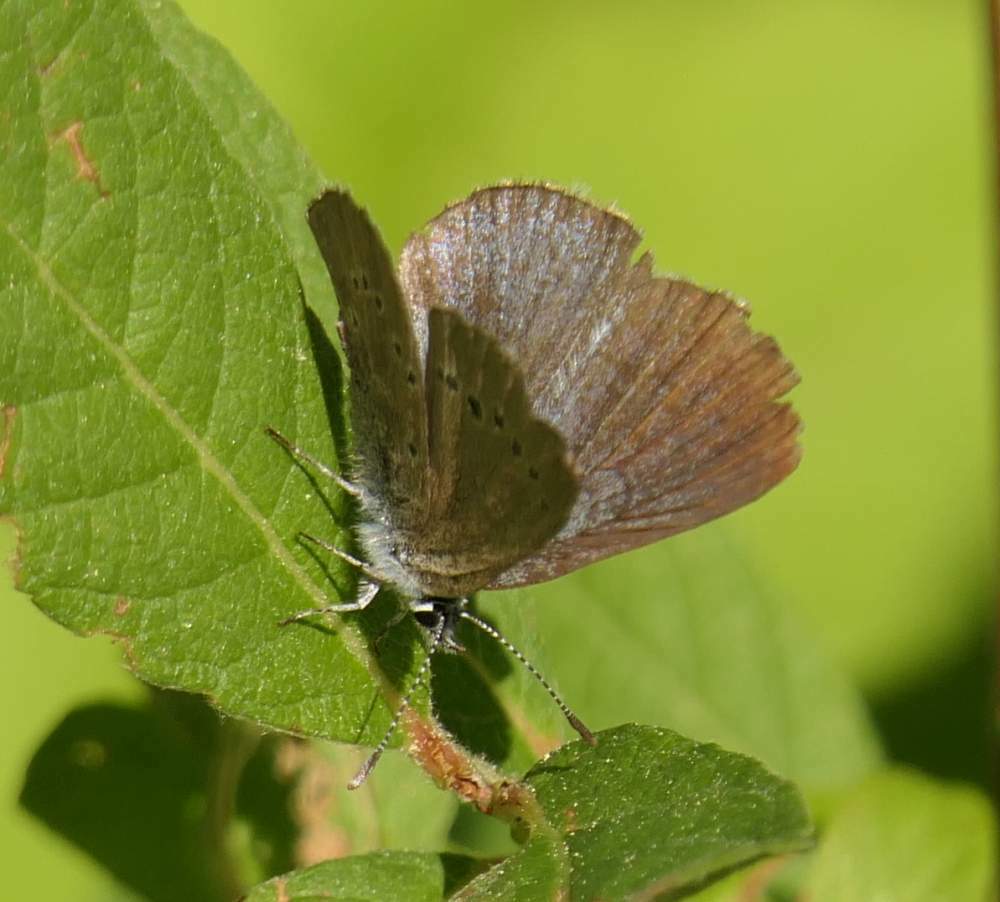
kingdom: Animalia
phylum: Arthropoda
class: Insecta
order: Lepidoptera
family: Lycaenidae
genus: Glaucopsyche
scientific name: Glaucopsyche lygdamus
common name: Silvery blue
